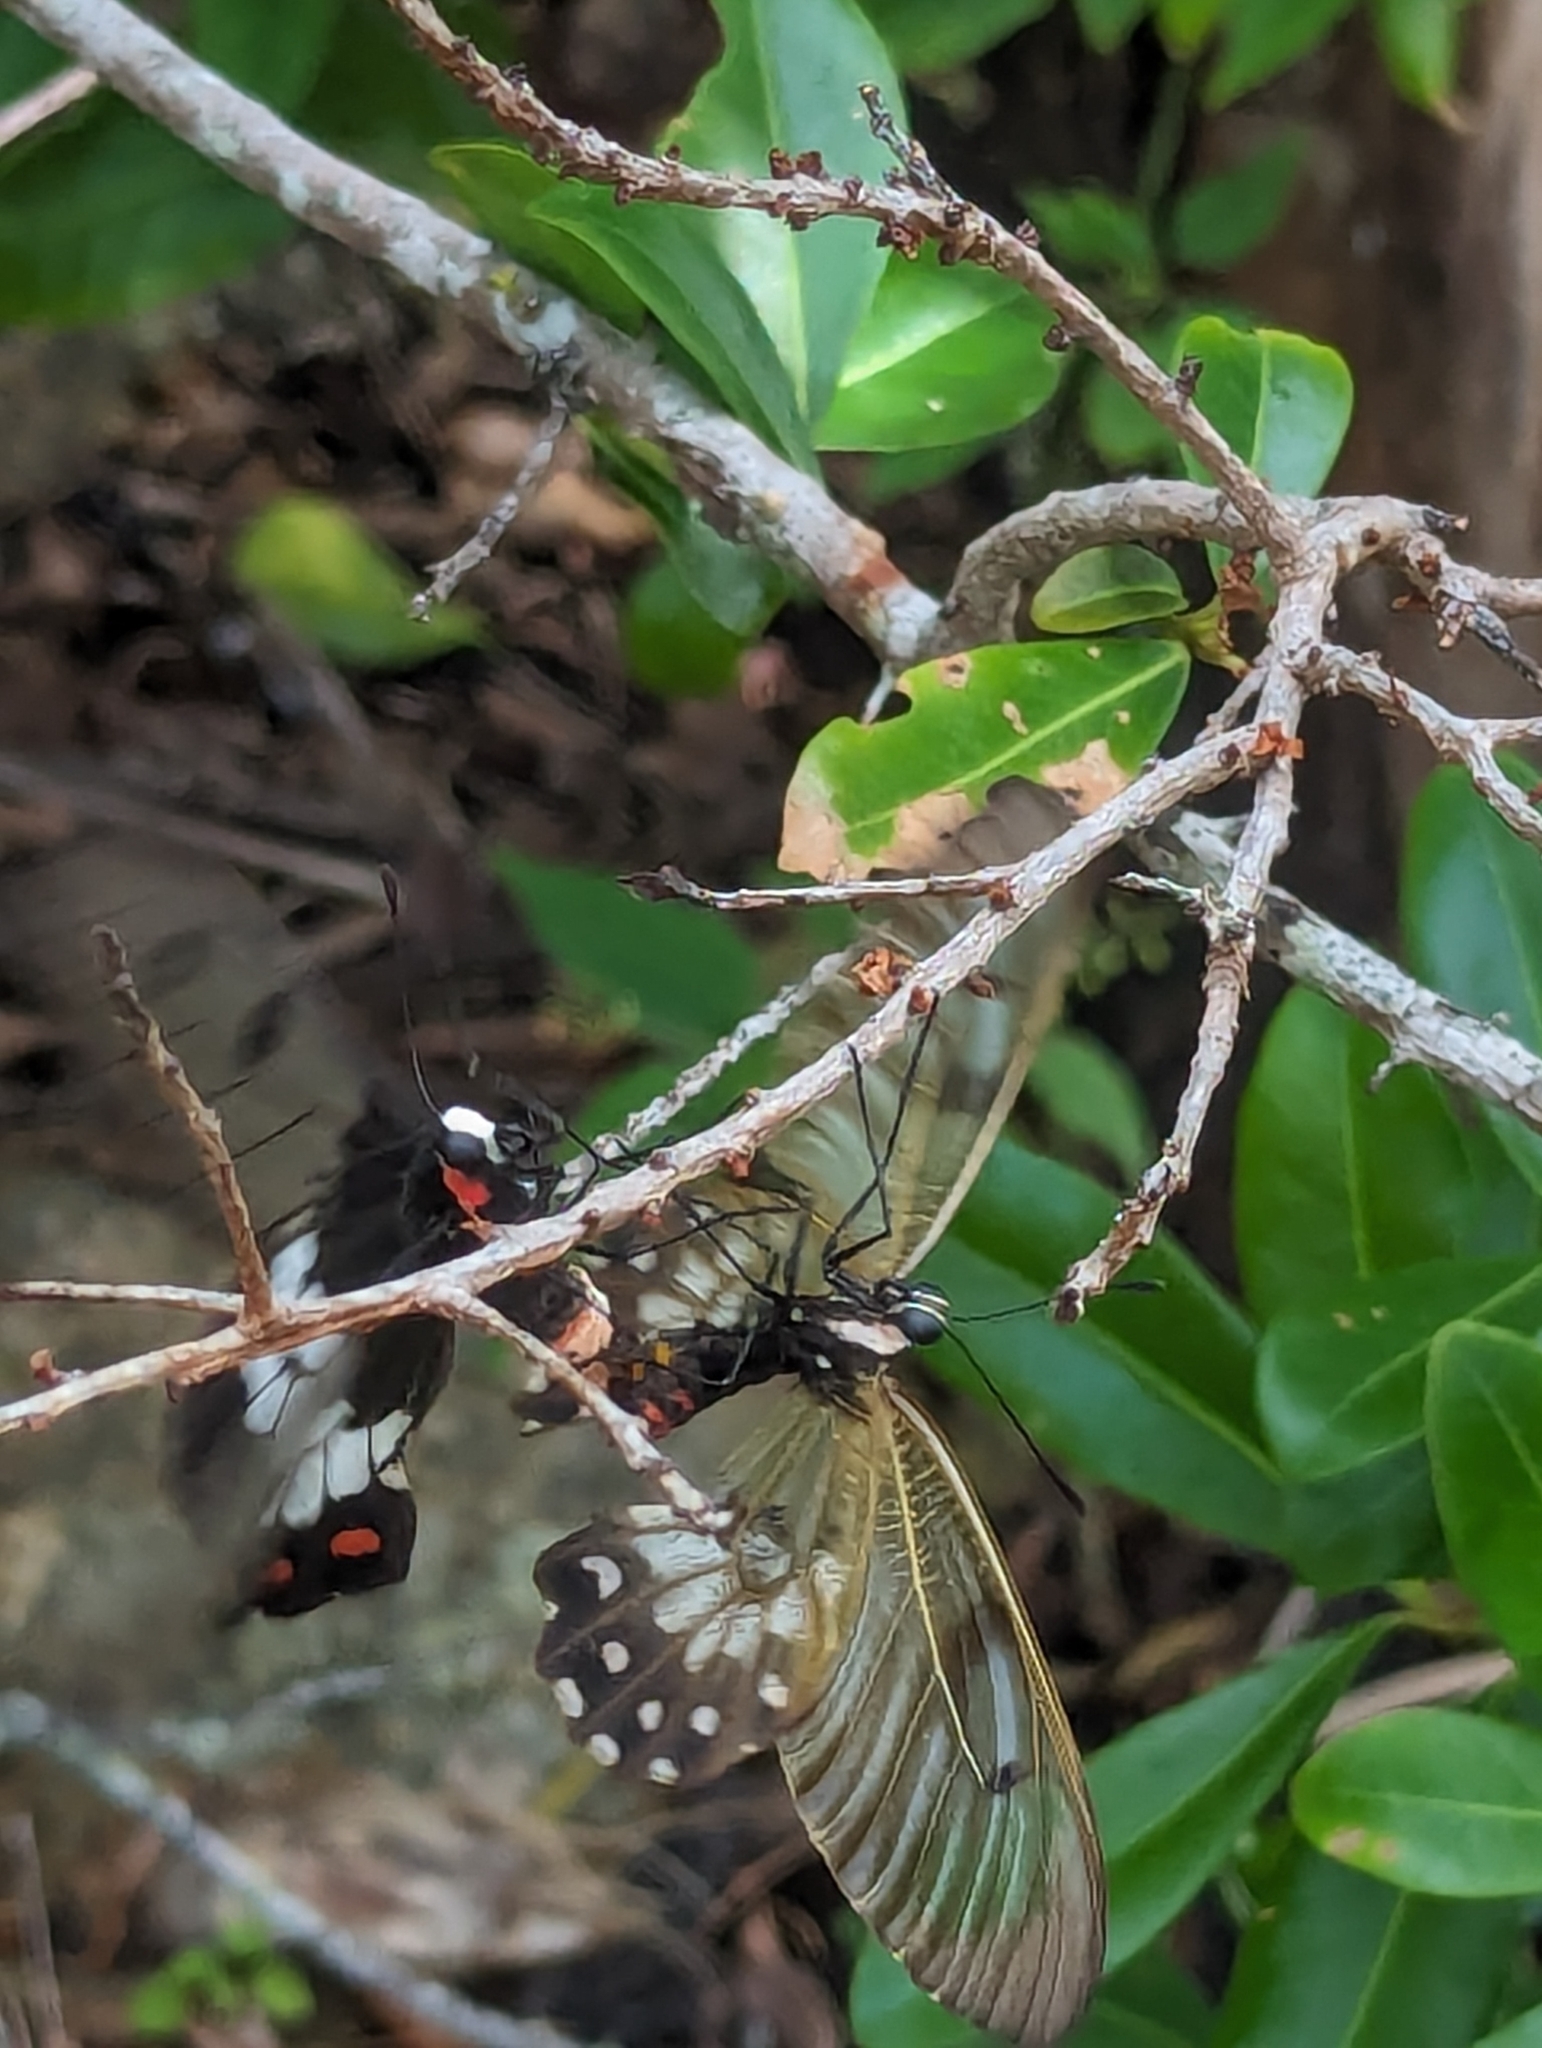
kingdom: Animalia
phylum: Arthropoda
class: Insecta
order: Lepidoptera
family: Papilionidae
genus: Cressida
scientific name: Cressida cressida
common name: Big greasy
